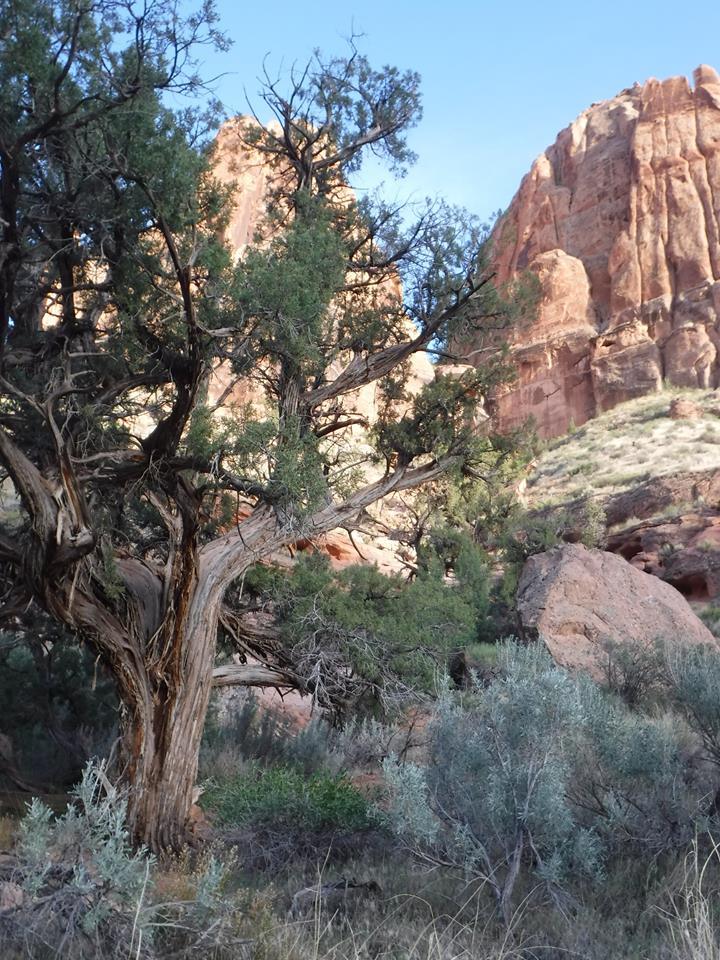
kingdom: Plantae
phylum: Tracheophyta
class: Pinopsida
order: Pinales
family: Cupressaceae
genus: Juniperus
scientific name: Juniperus osteosperma
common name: Utah juniper
